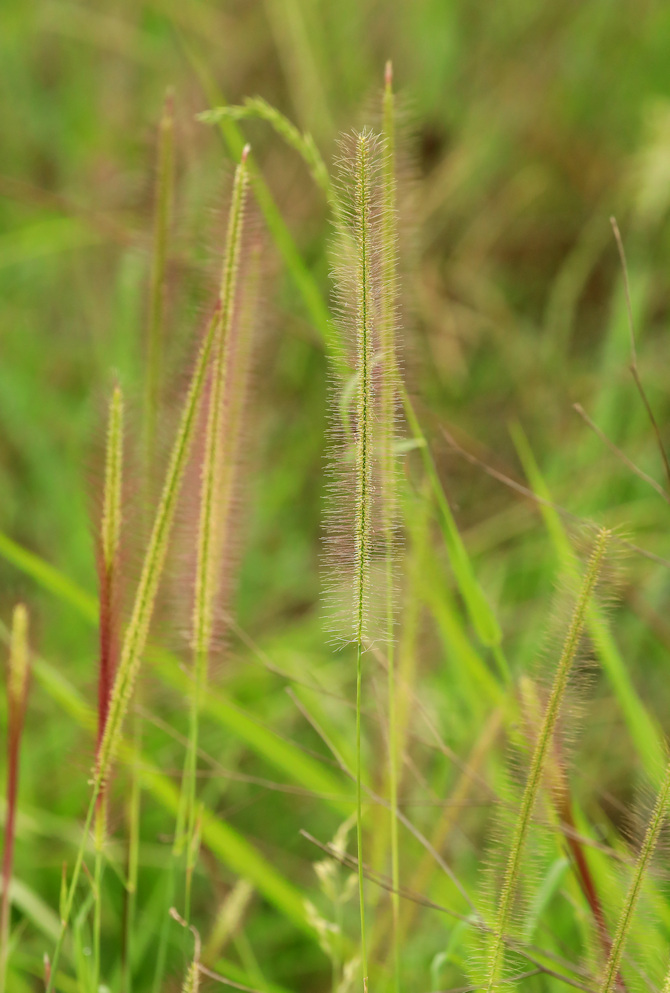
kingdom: Plantae
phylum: Tracheophyta
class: Liliopsida
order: Poales
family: Poaceae
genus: Perotis
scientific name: Perotis patens
